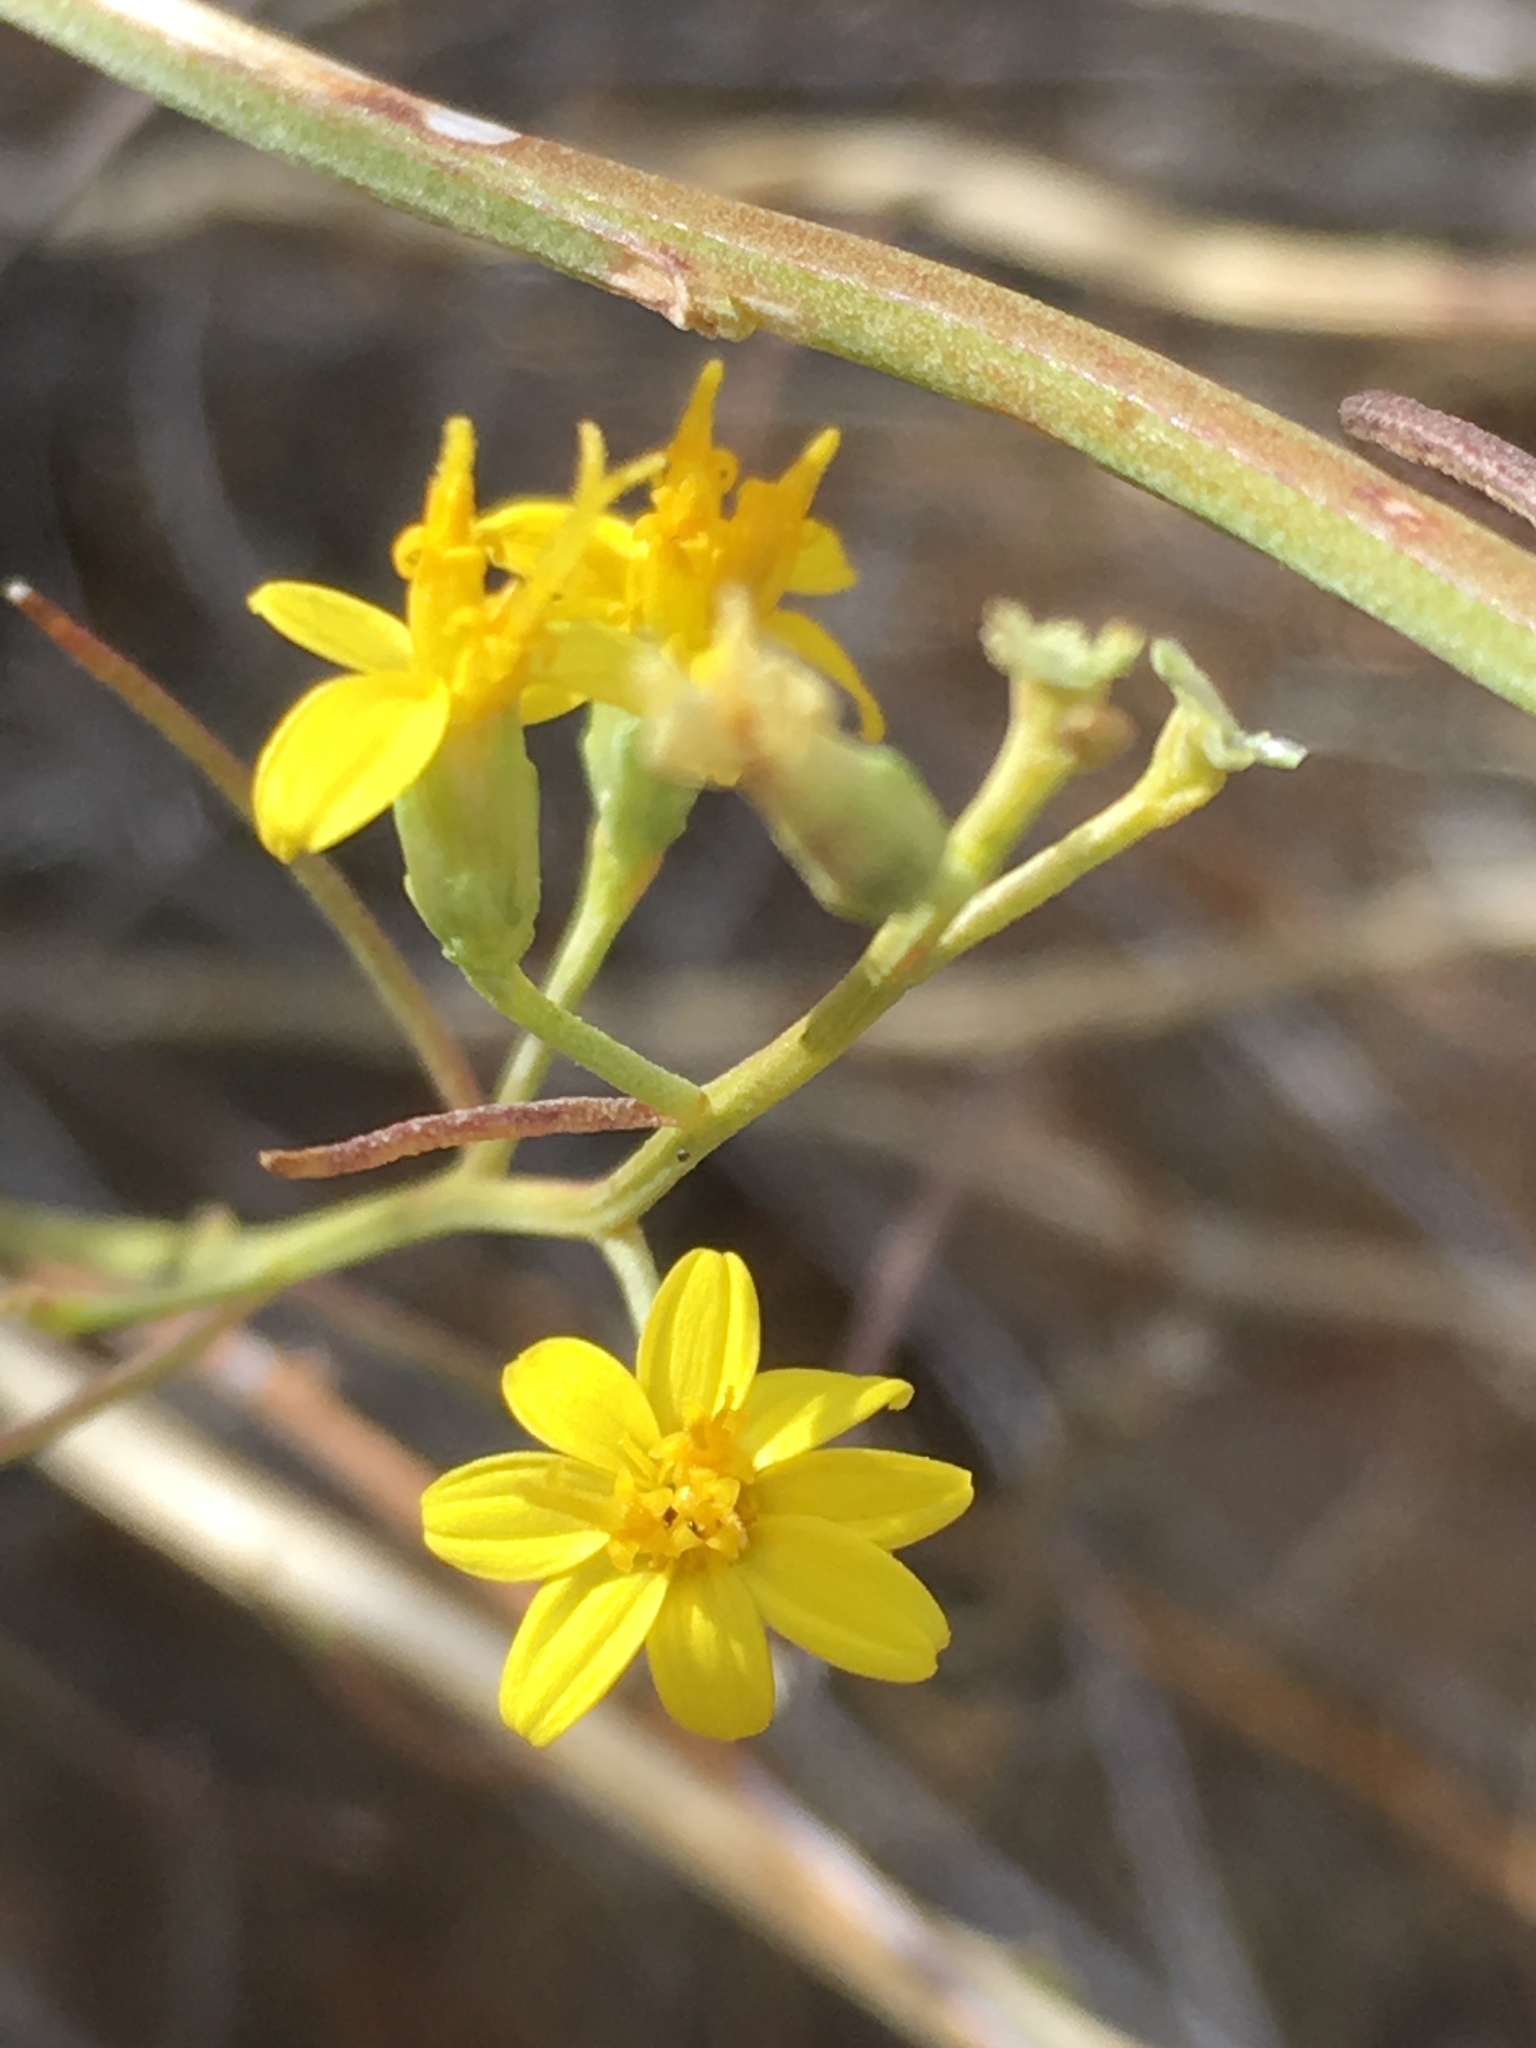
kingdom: Plantae
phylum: Tracheophyta
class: Magnoliopsida
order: Asterales
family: Asteraceae
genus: Gutierrezia
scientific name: Gutierrezia sarothrae
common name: Broom snakeweed
